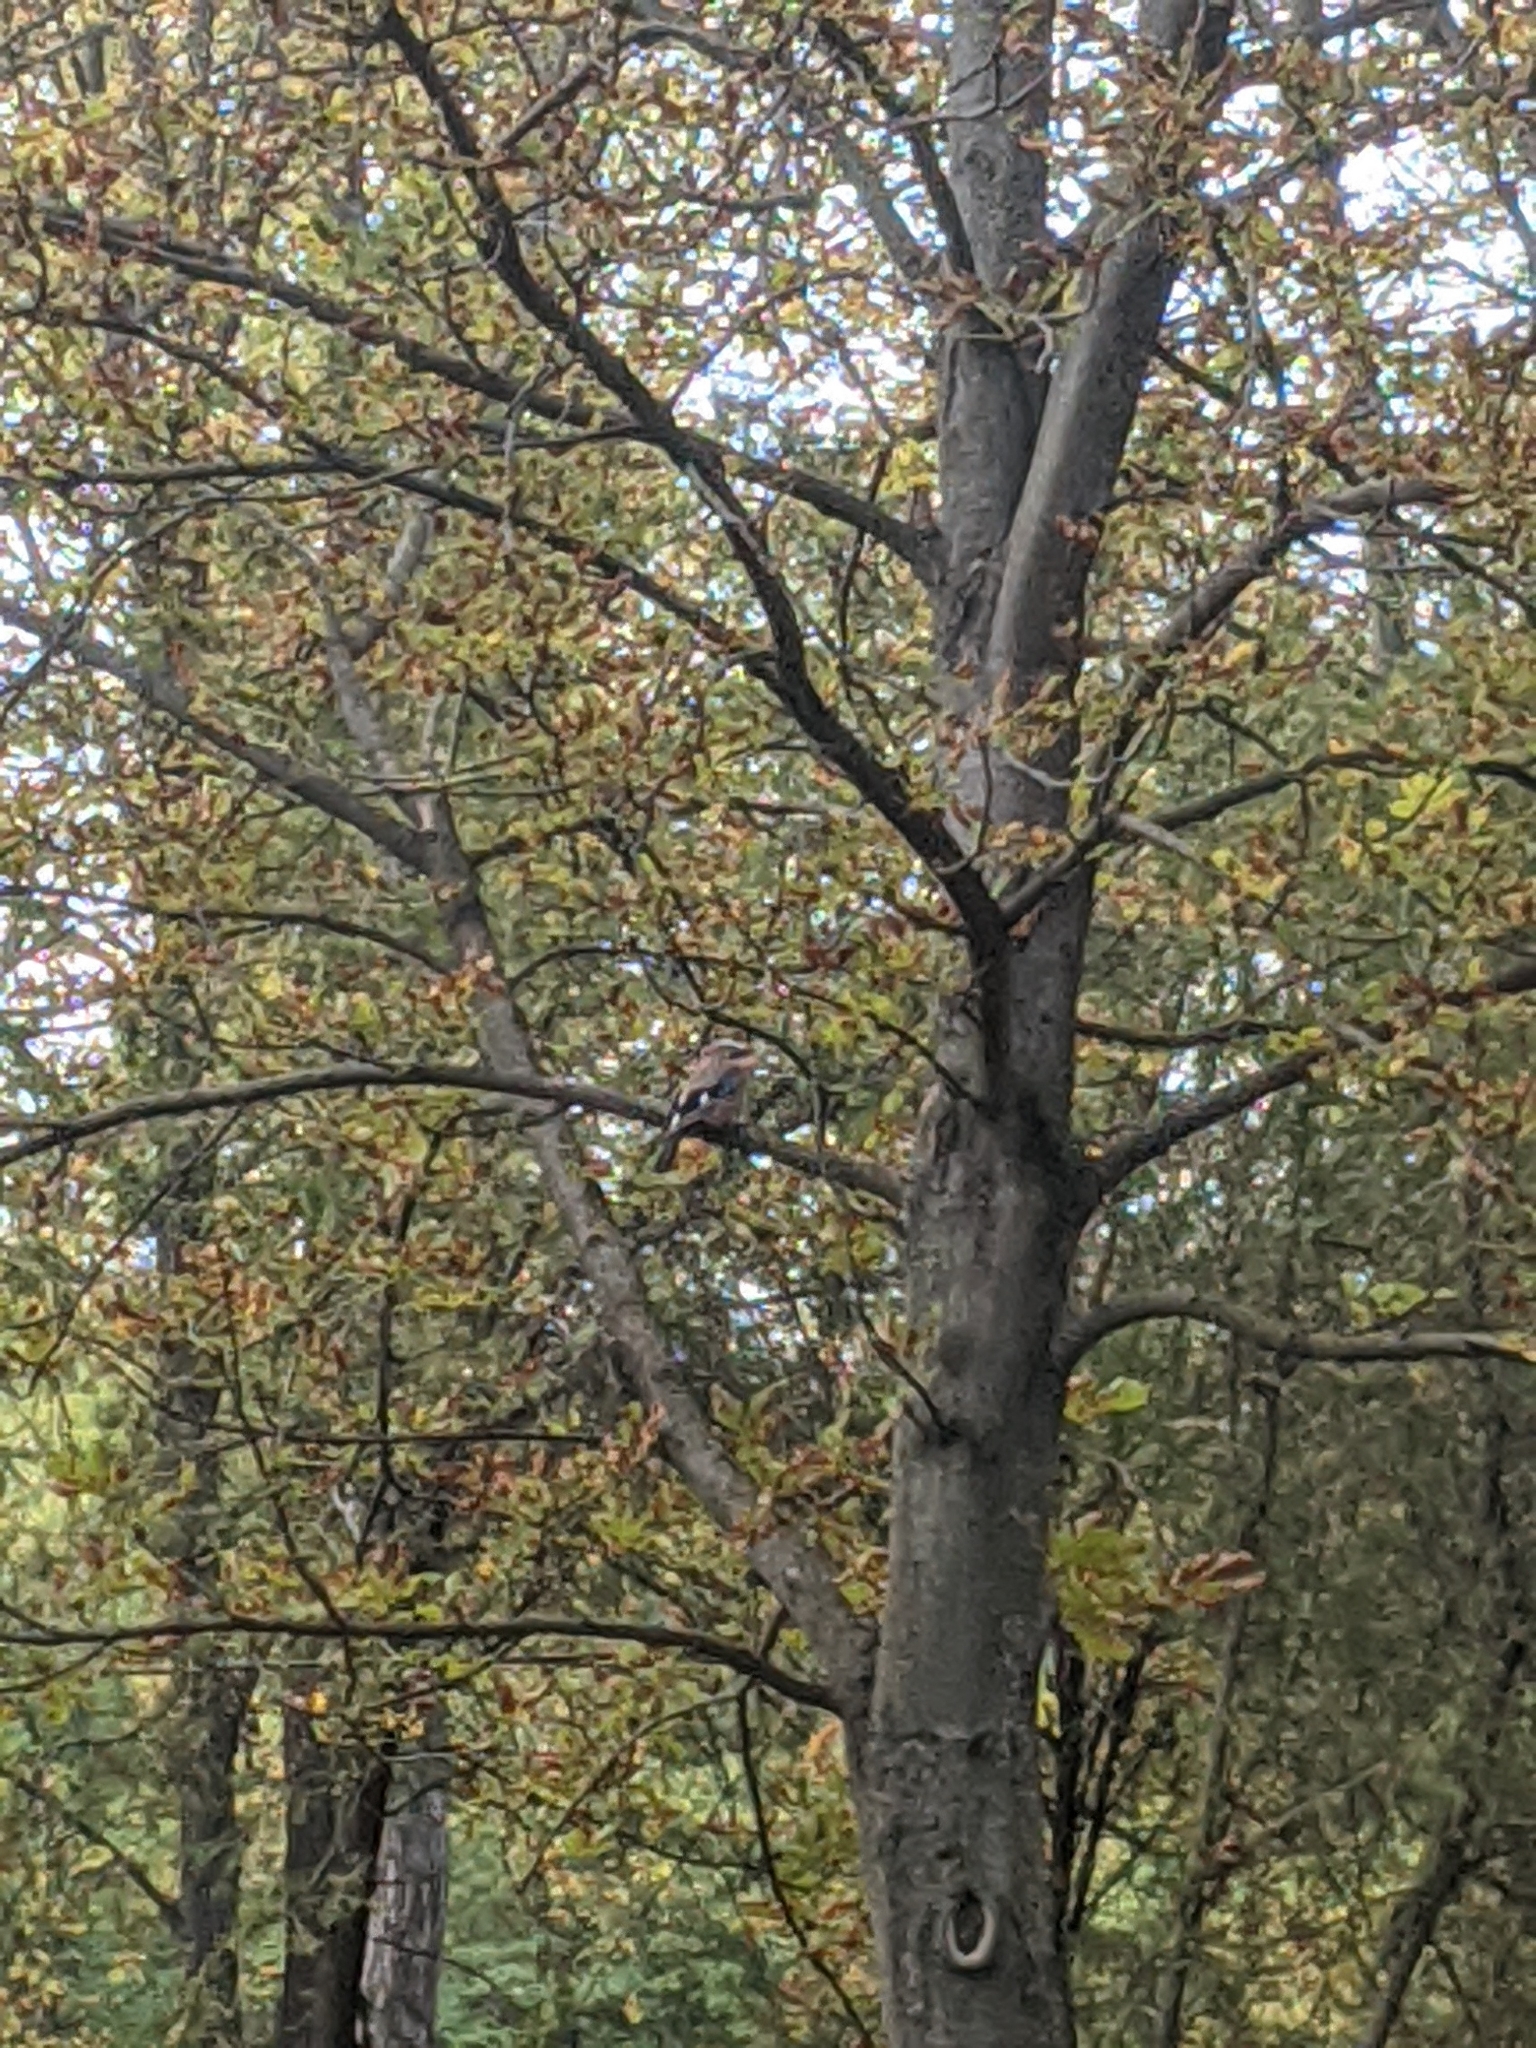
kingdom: Animalia
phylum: Chordata
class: Aves
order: Passeriformes
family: Corvidae
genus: Garrulus
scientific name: Garrulus glandarius
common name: Eurasian jay
